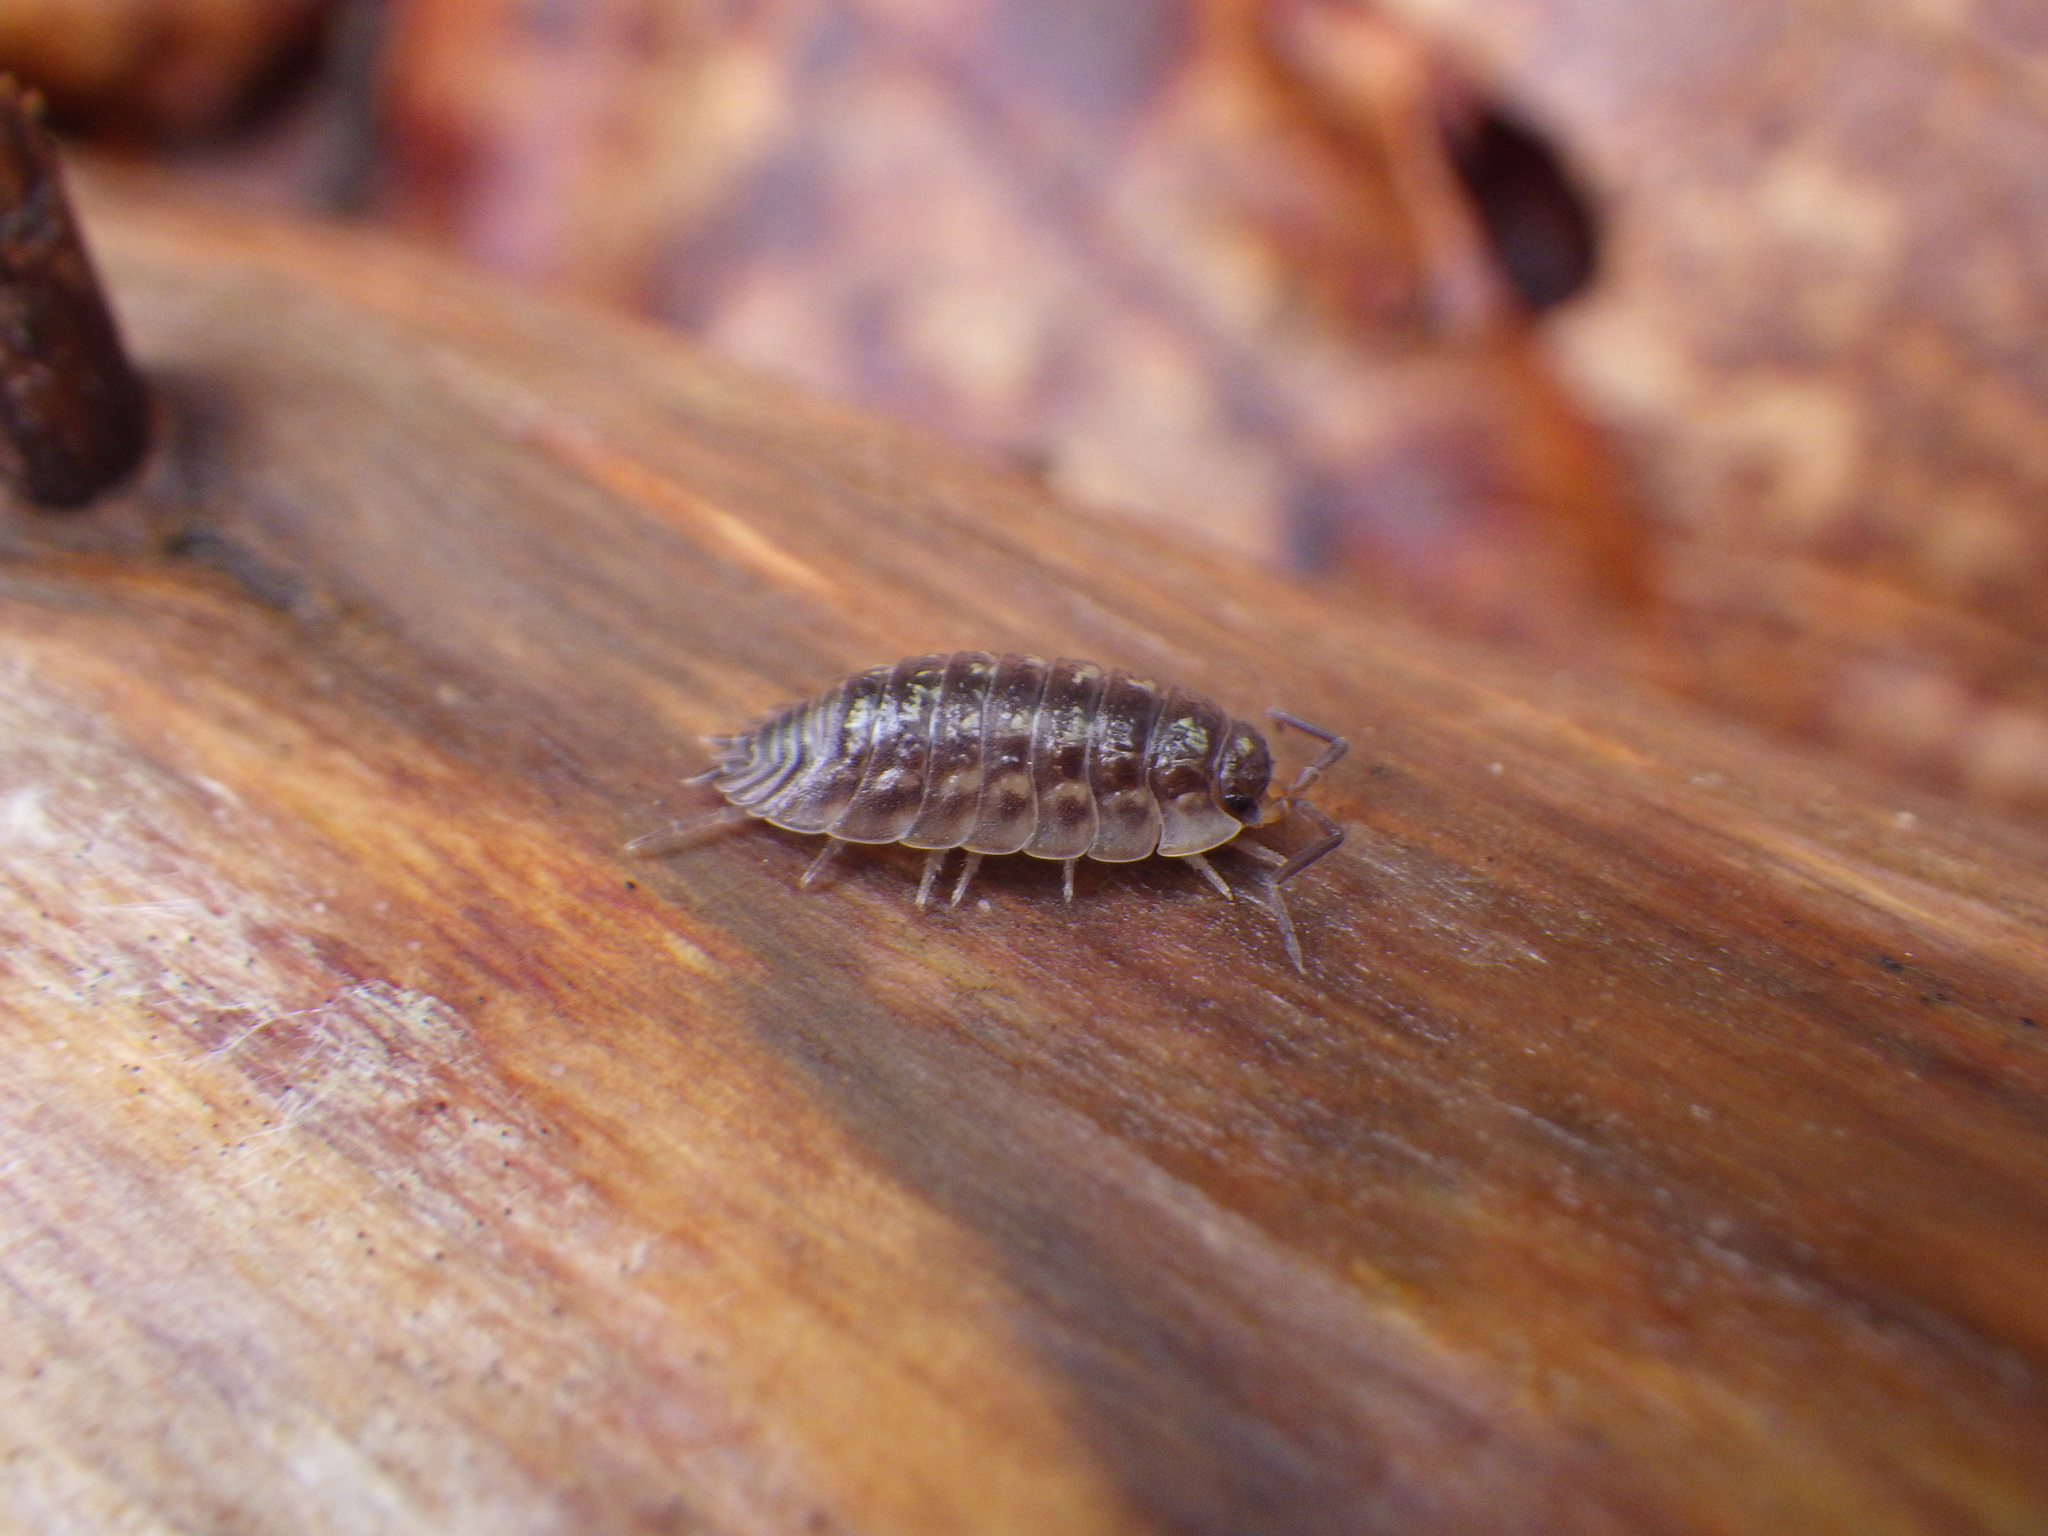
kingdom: Animalia
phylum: Arthropoda
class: Malacostraca
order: Isopoda
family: Oniscidae
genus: Oniscus
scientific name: Oniscus asellus
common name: Common shiny woodlouse
